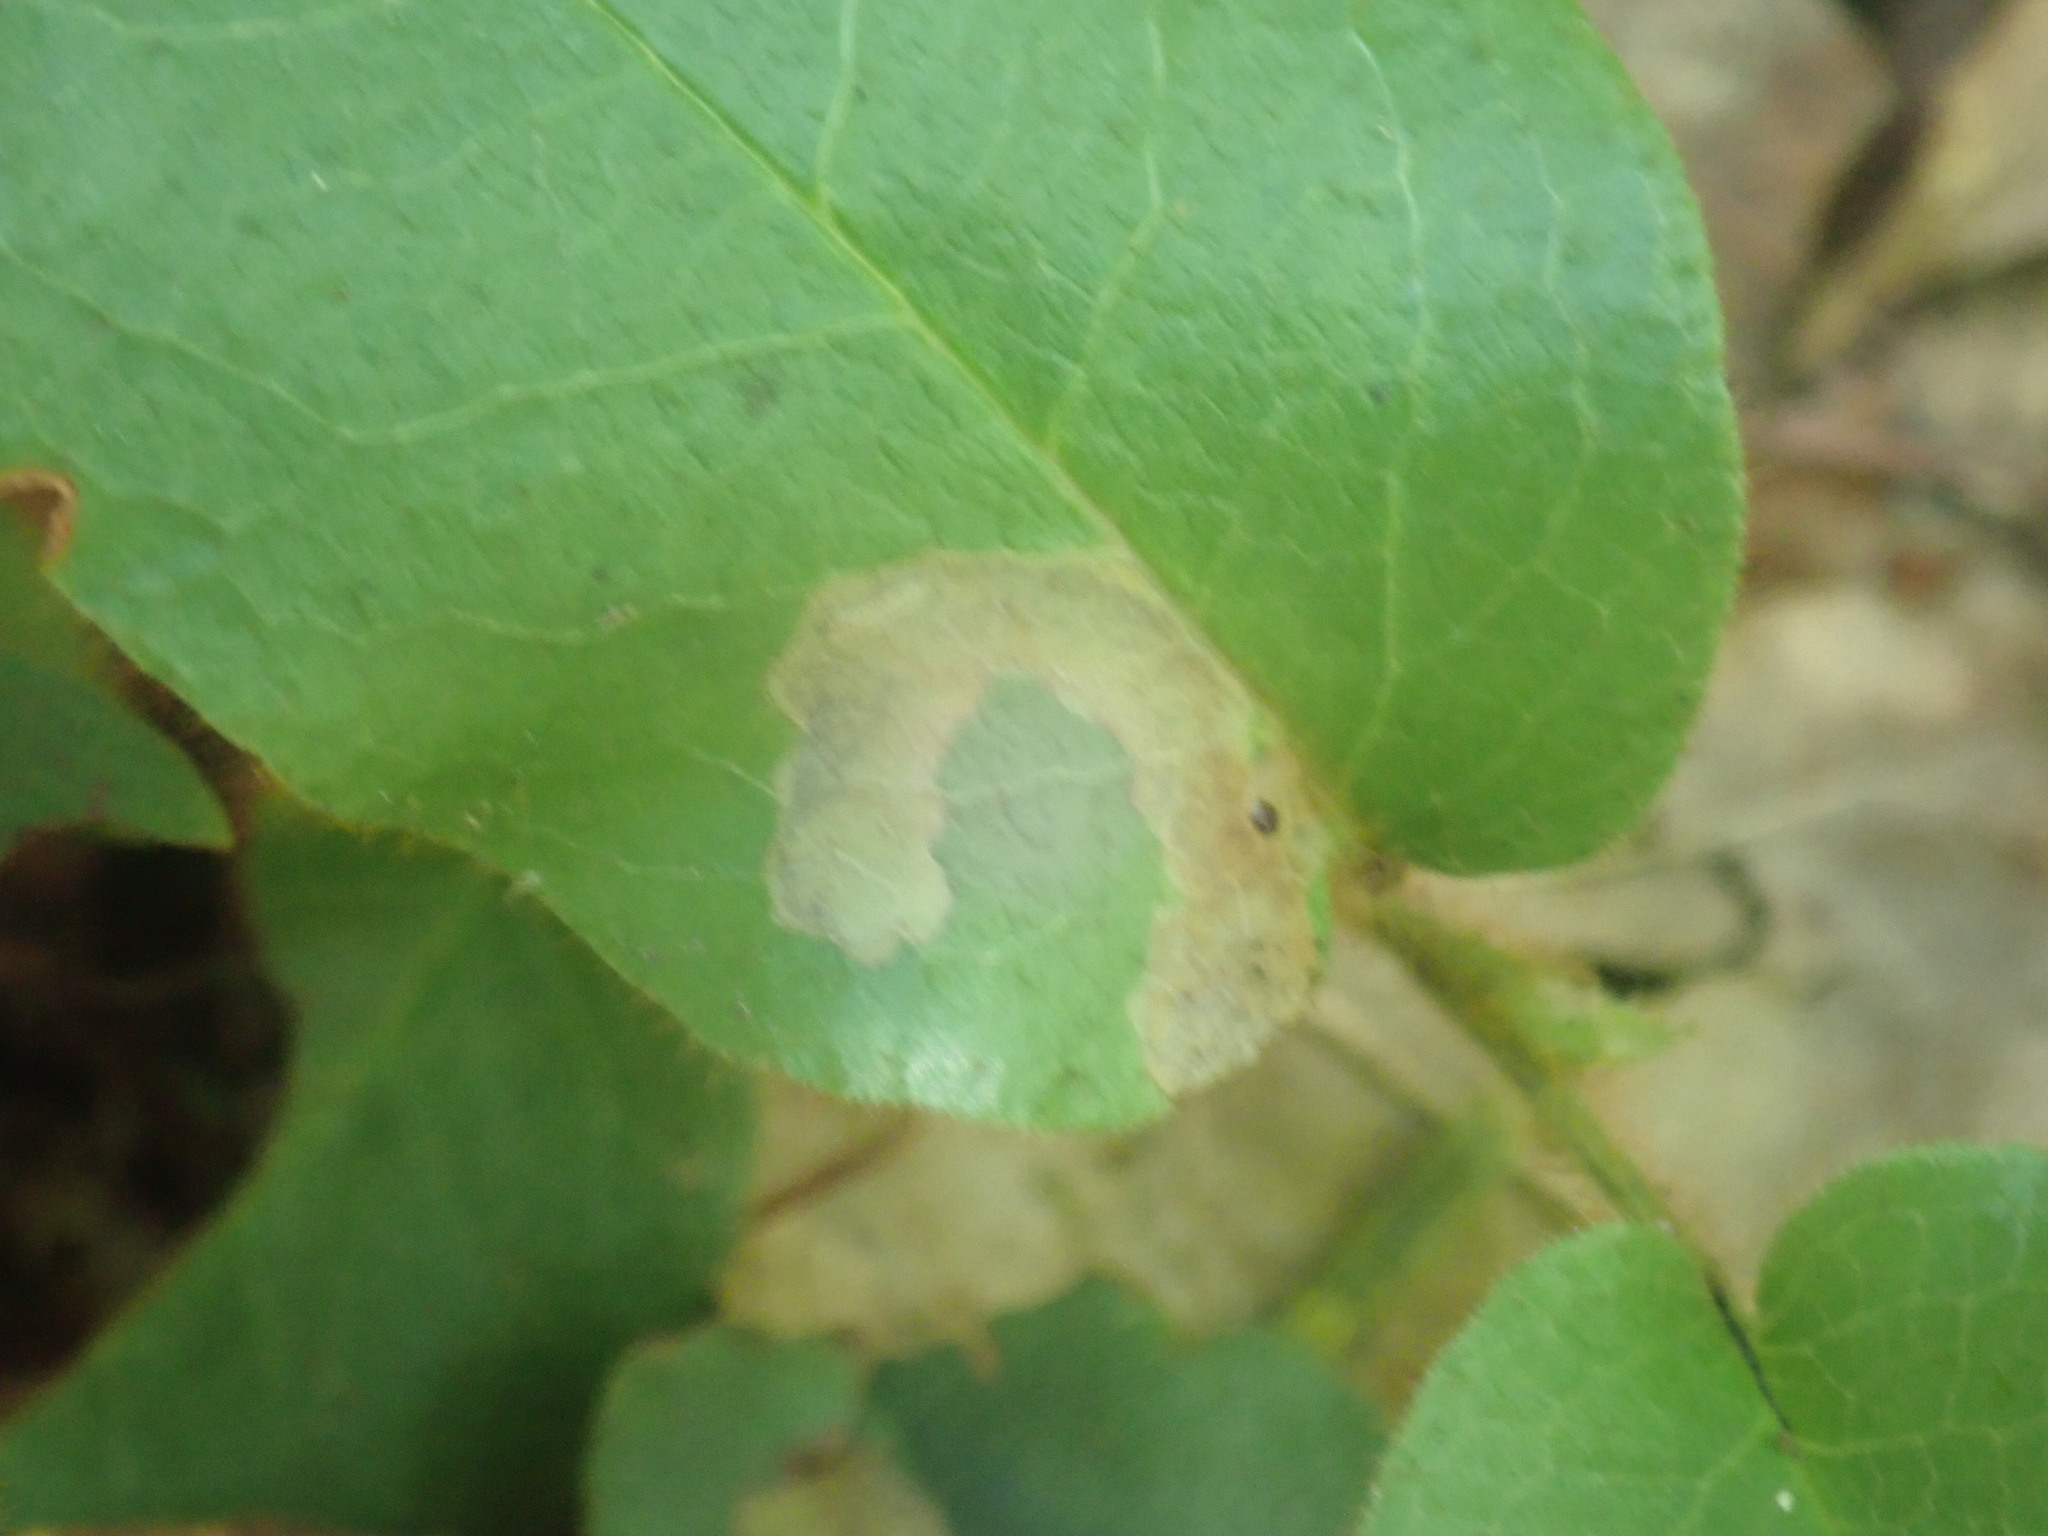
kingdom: Animalia
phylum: Arthropoda
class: Insecta
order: Coleoptera
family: Buprestidae
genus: Brachys
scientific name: Brachys
